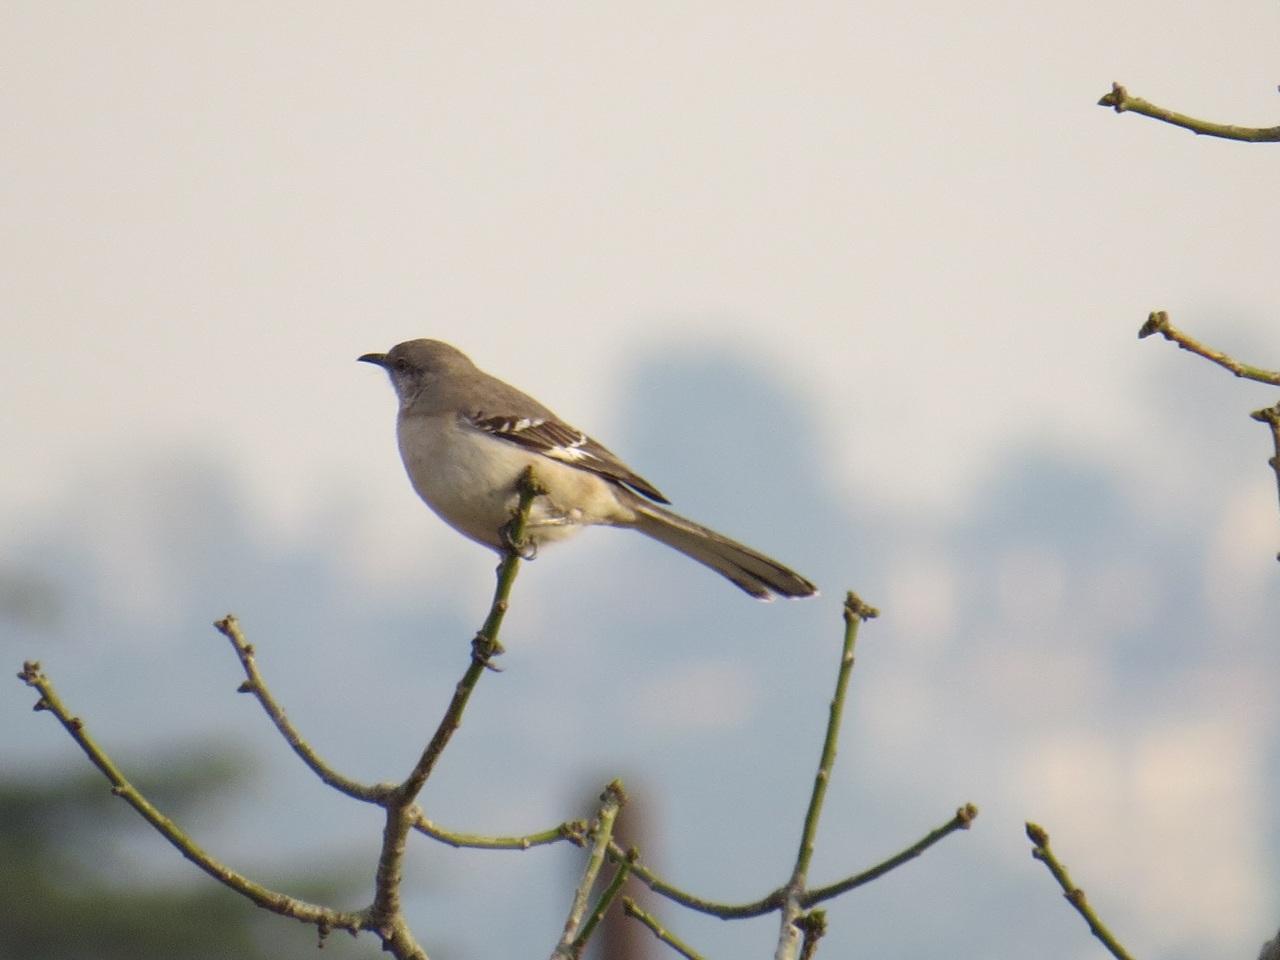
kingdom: Animalia
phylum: Chordata
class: Aves
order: Passeriformes
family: Mimidae
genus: Mimus
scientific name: Mimus polyglottos
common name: Northern mockingbird
